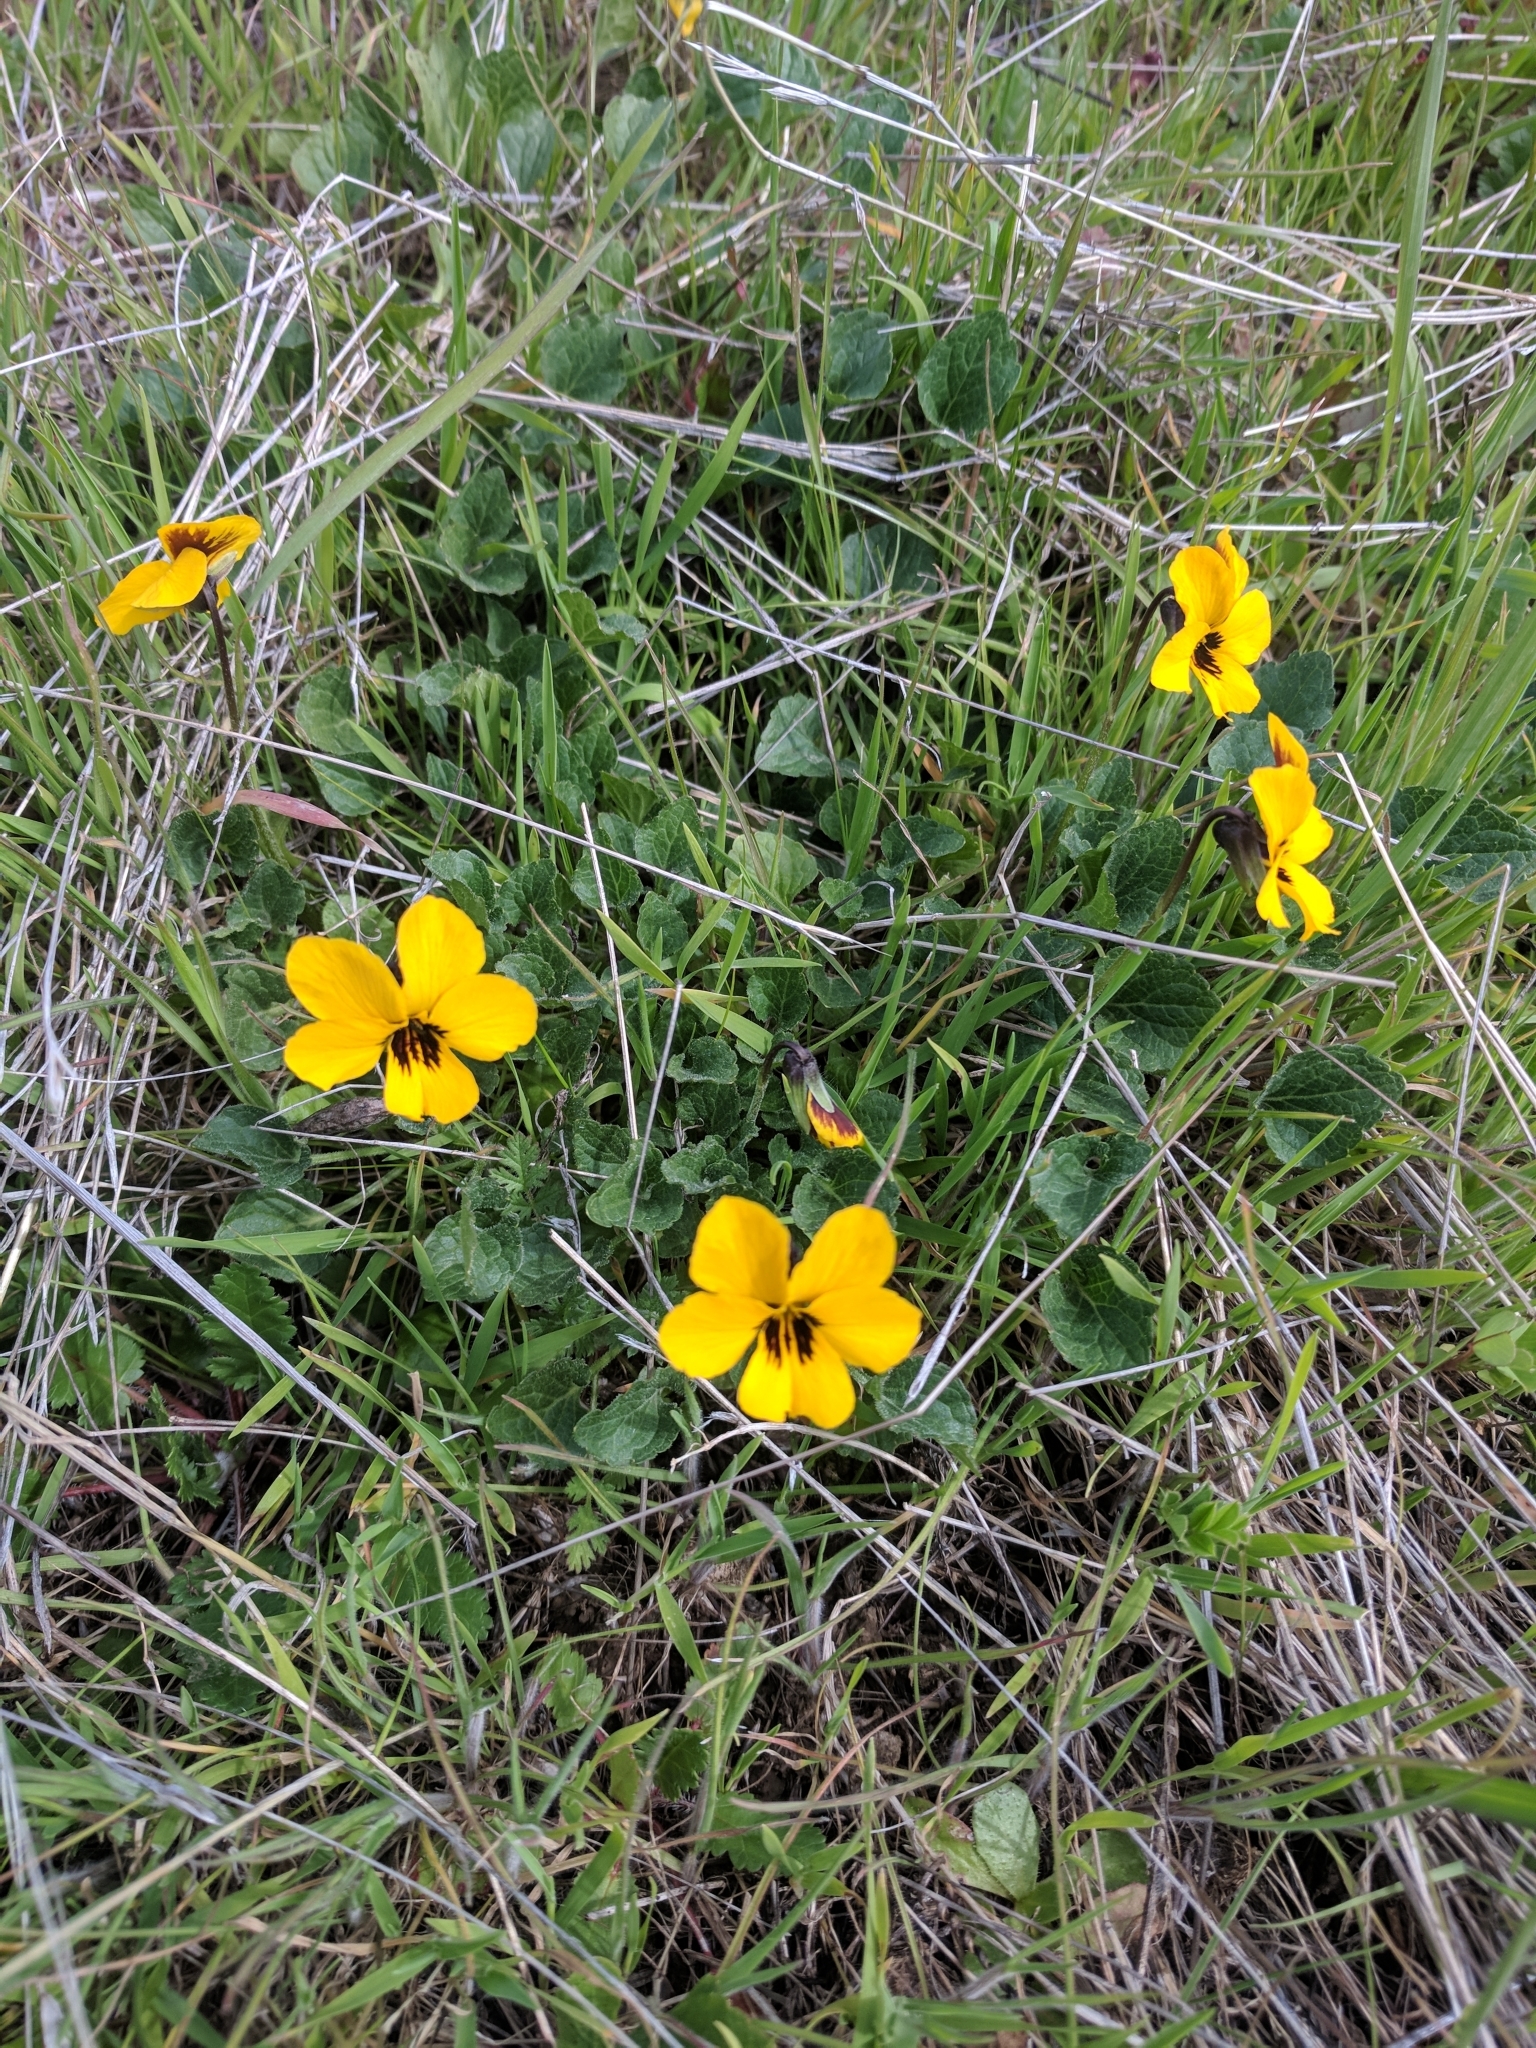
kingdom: Plantae
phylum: Tracheophyta
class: Magnoliopsida
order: Malpighiales
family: Violaceae
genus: Viola
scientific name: Viola pedunculata
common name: California golden violet
